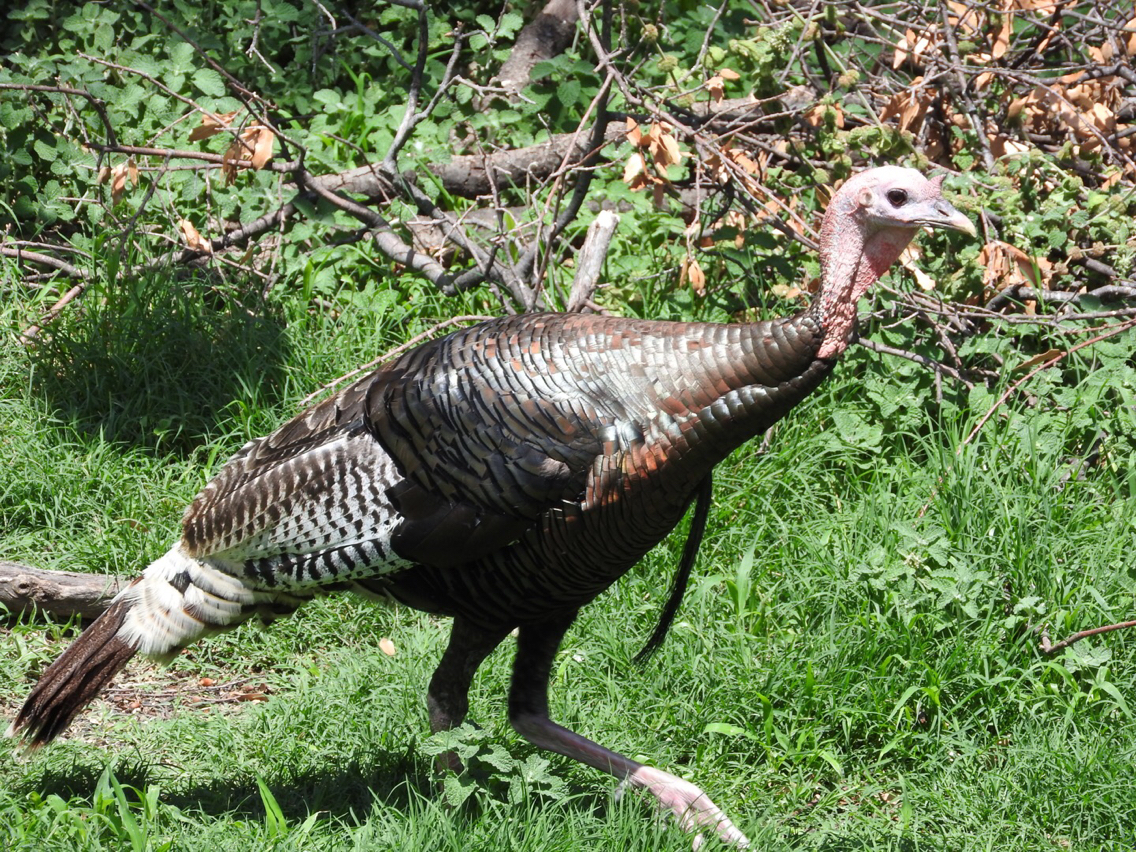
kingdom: Animalia
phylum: Chordata
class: Aves
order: Galliformes
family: Phasianidae
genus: Meleagris
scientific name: Meleagris gallopavo
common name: Wild turkey
